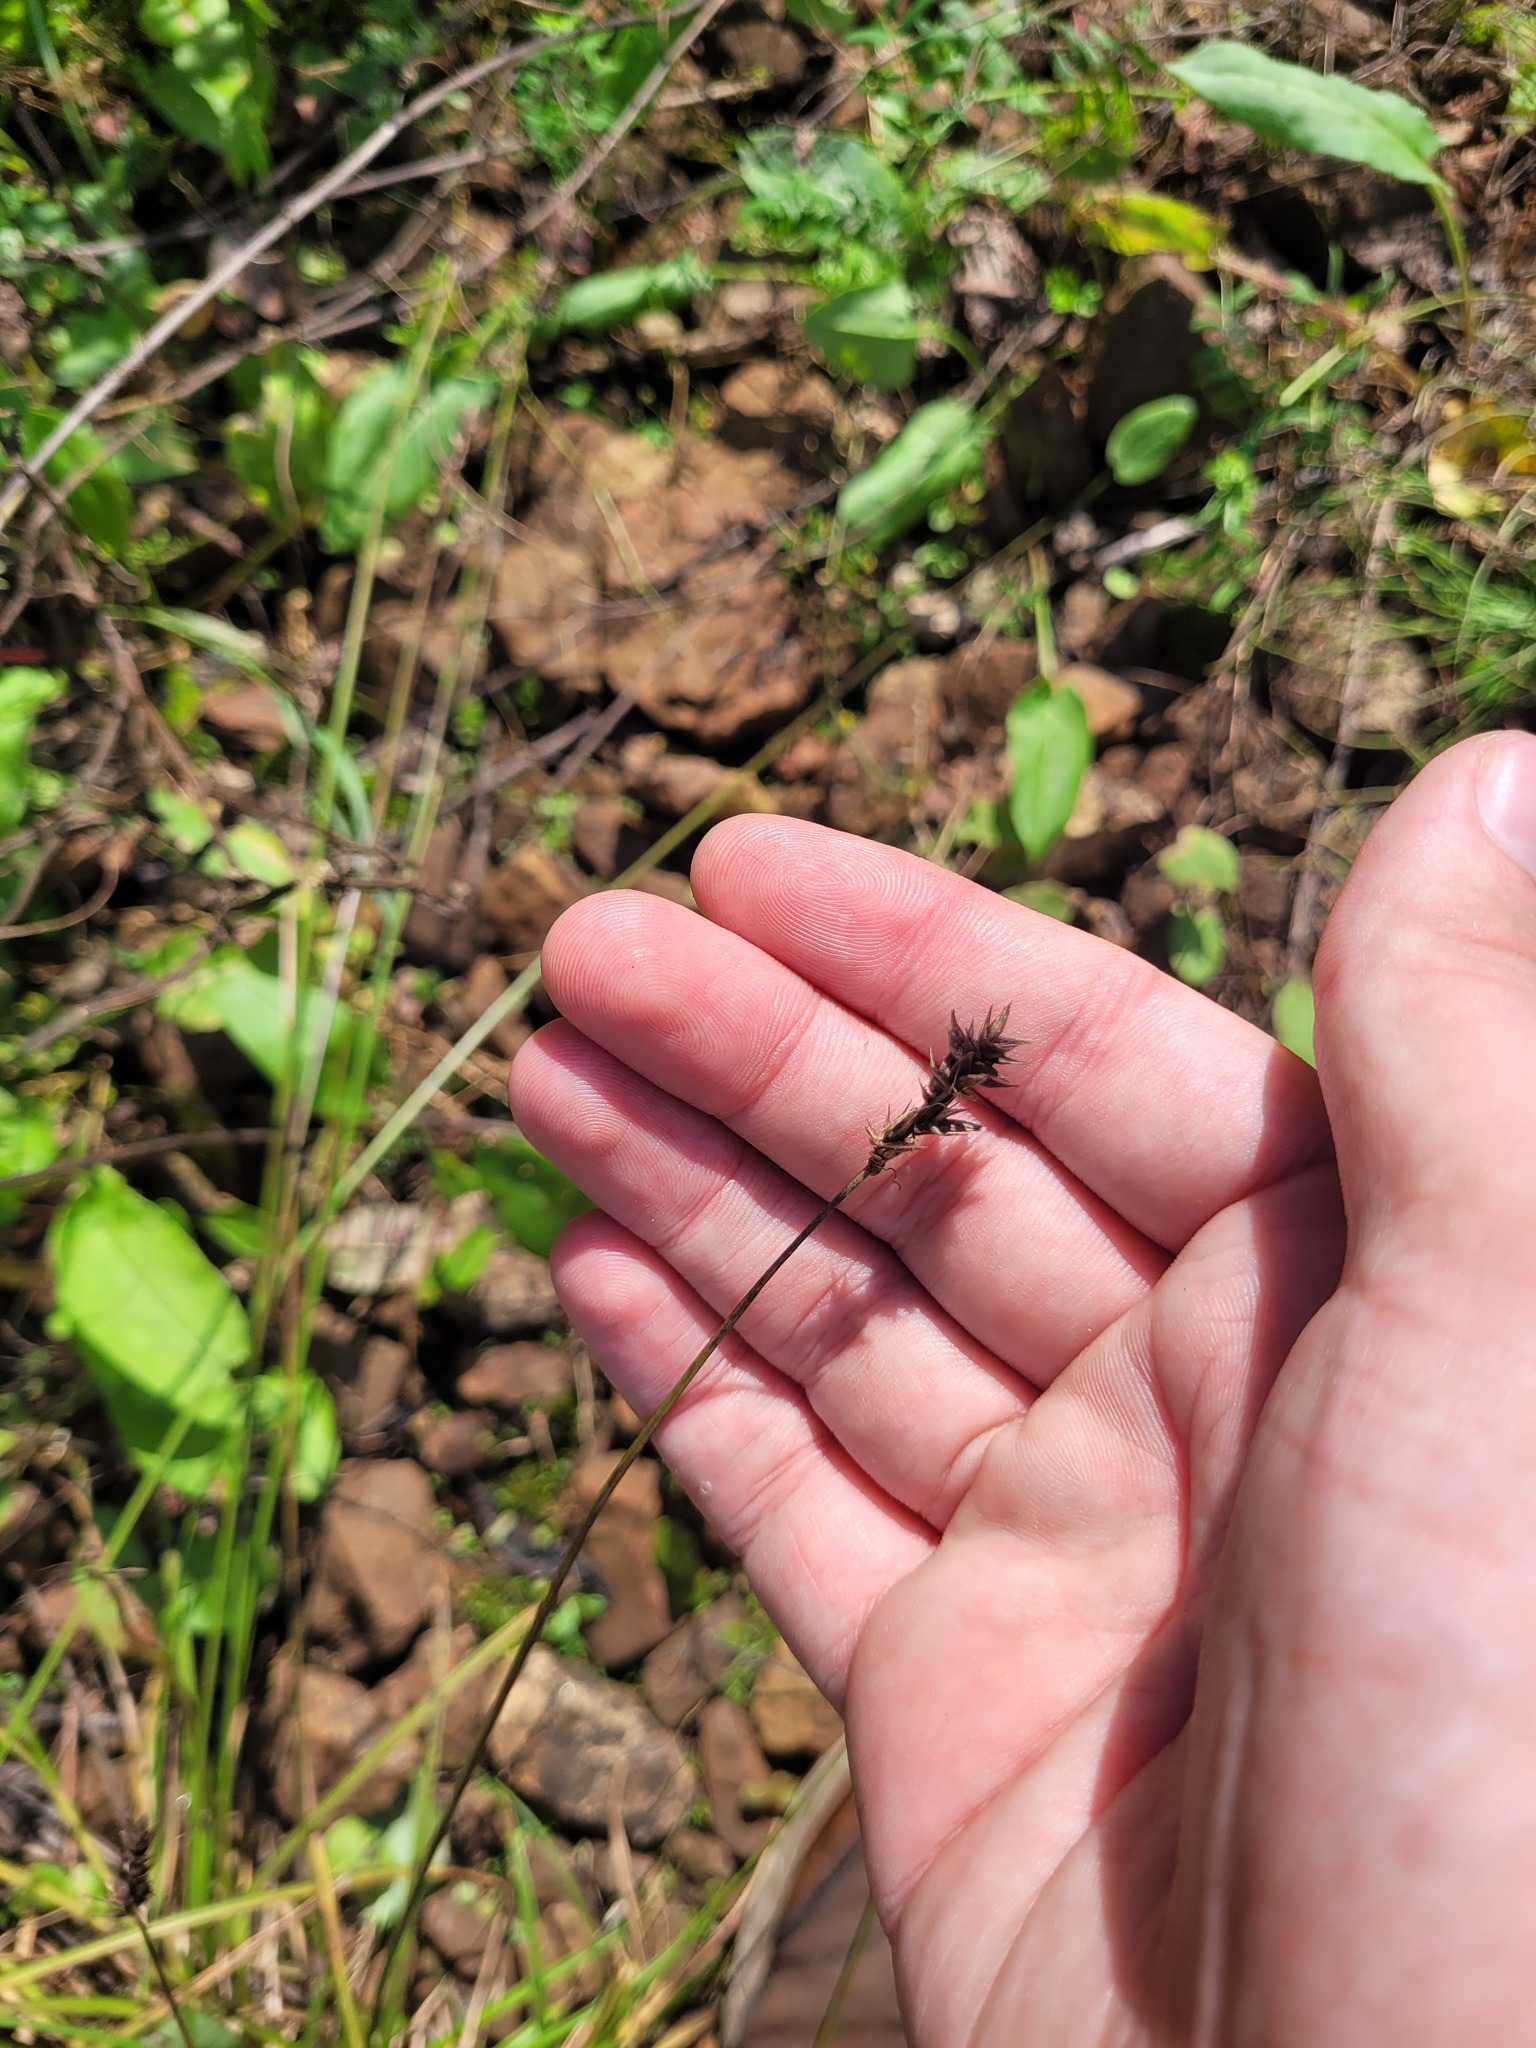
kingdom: Plantae
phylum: Tracheophyta
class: Liliopsida
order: Poales
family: Cyperaceae
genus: Carex
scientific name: Carex spicata
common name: Spiked sedge
